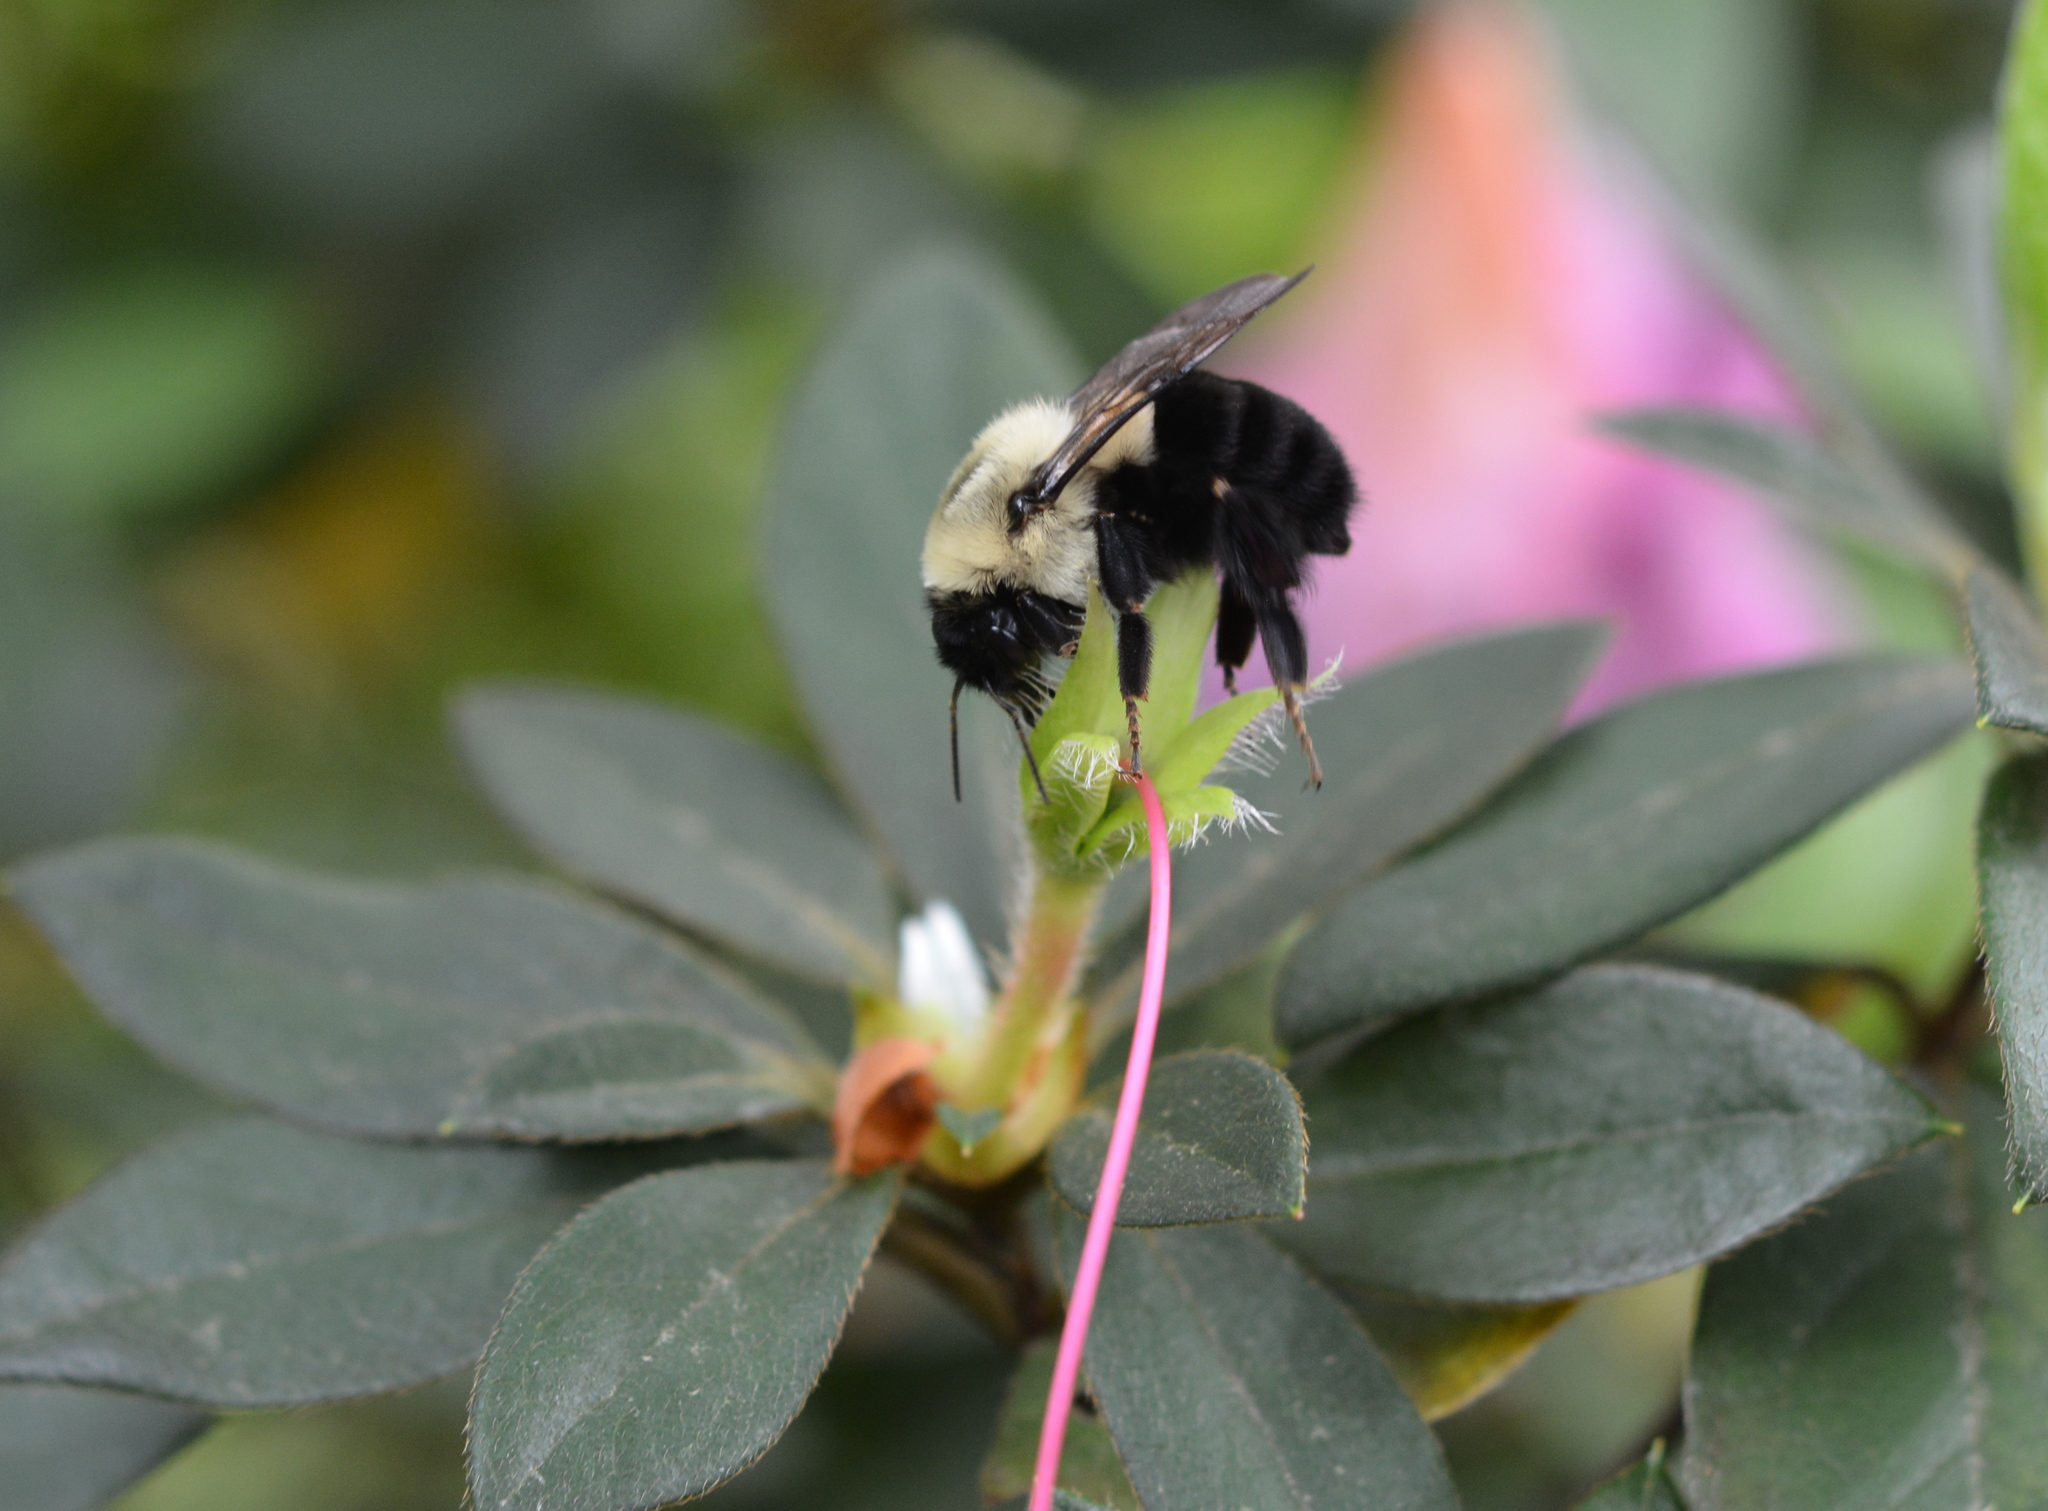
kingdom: Animalia
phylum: Arthropoda
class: Insecta
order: Hymenoptera
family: Apidae
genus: Bombus
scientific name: Bombus impatiens
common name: Common eastern bumble bee
